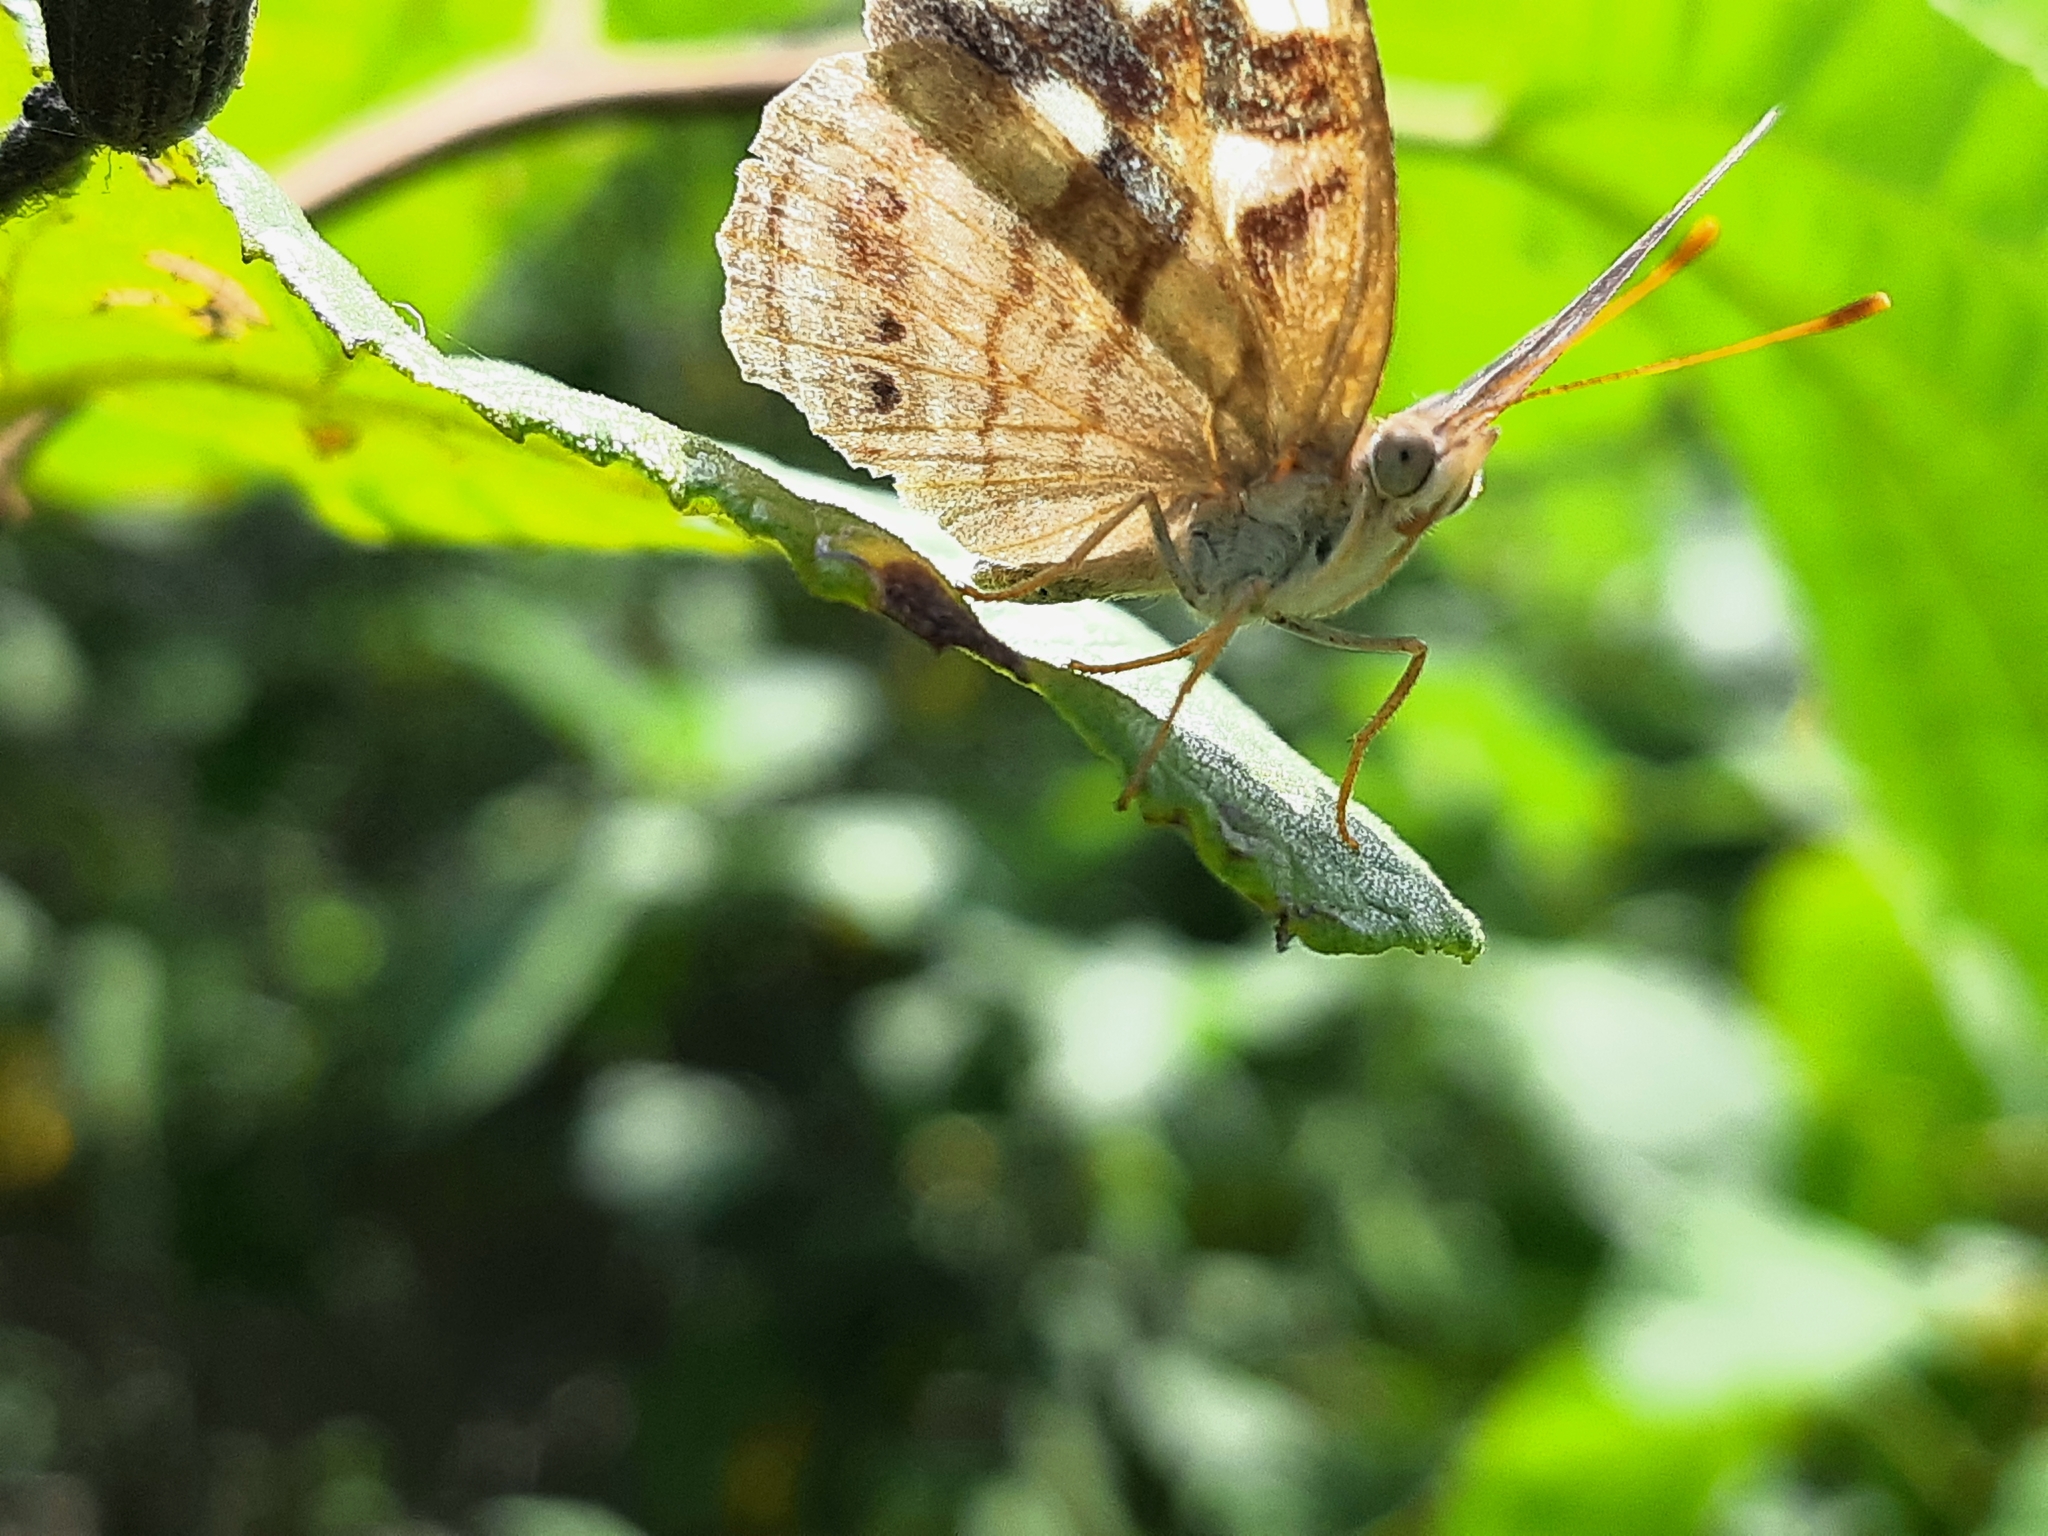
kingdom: Animalia
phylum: Arthropoda
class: Insecta
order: Lepidoptera
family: Nymphalidae
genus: Dynamine
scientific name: Dynamine haenschi
